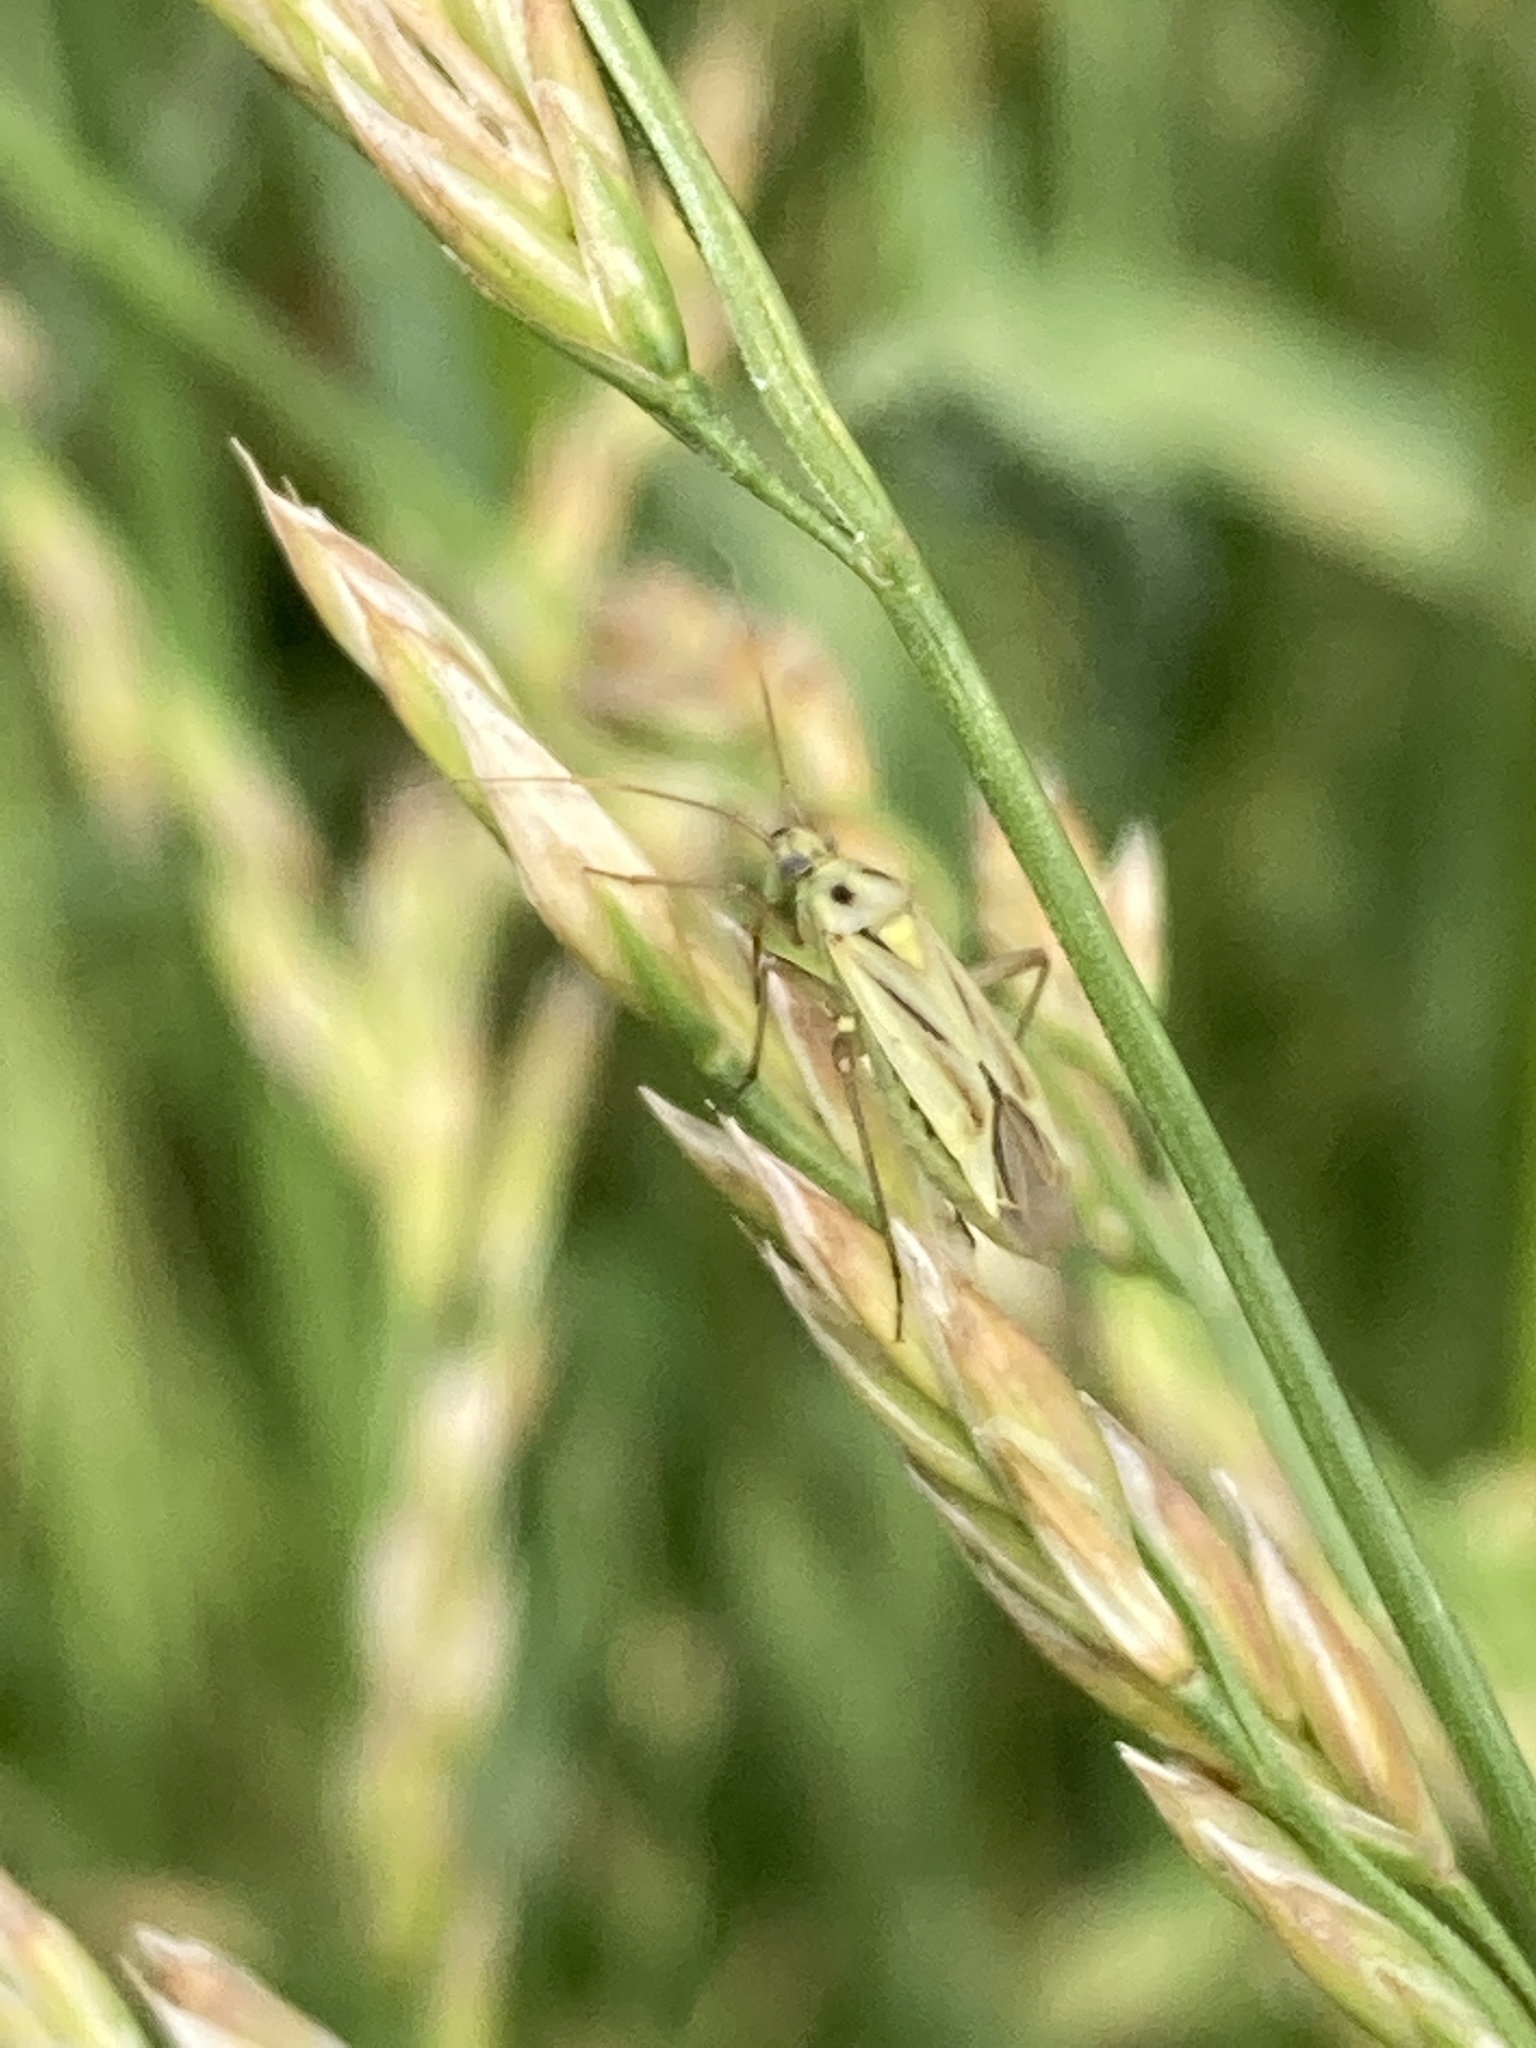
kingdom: Animalia
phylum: Arthropoda
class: Insecta
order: Hemiptera
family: Miridae
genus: Stenotus
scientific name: Stenotus binotatus
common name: Plant bug
